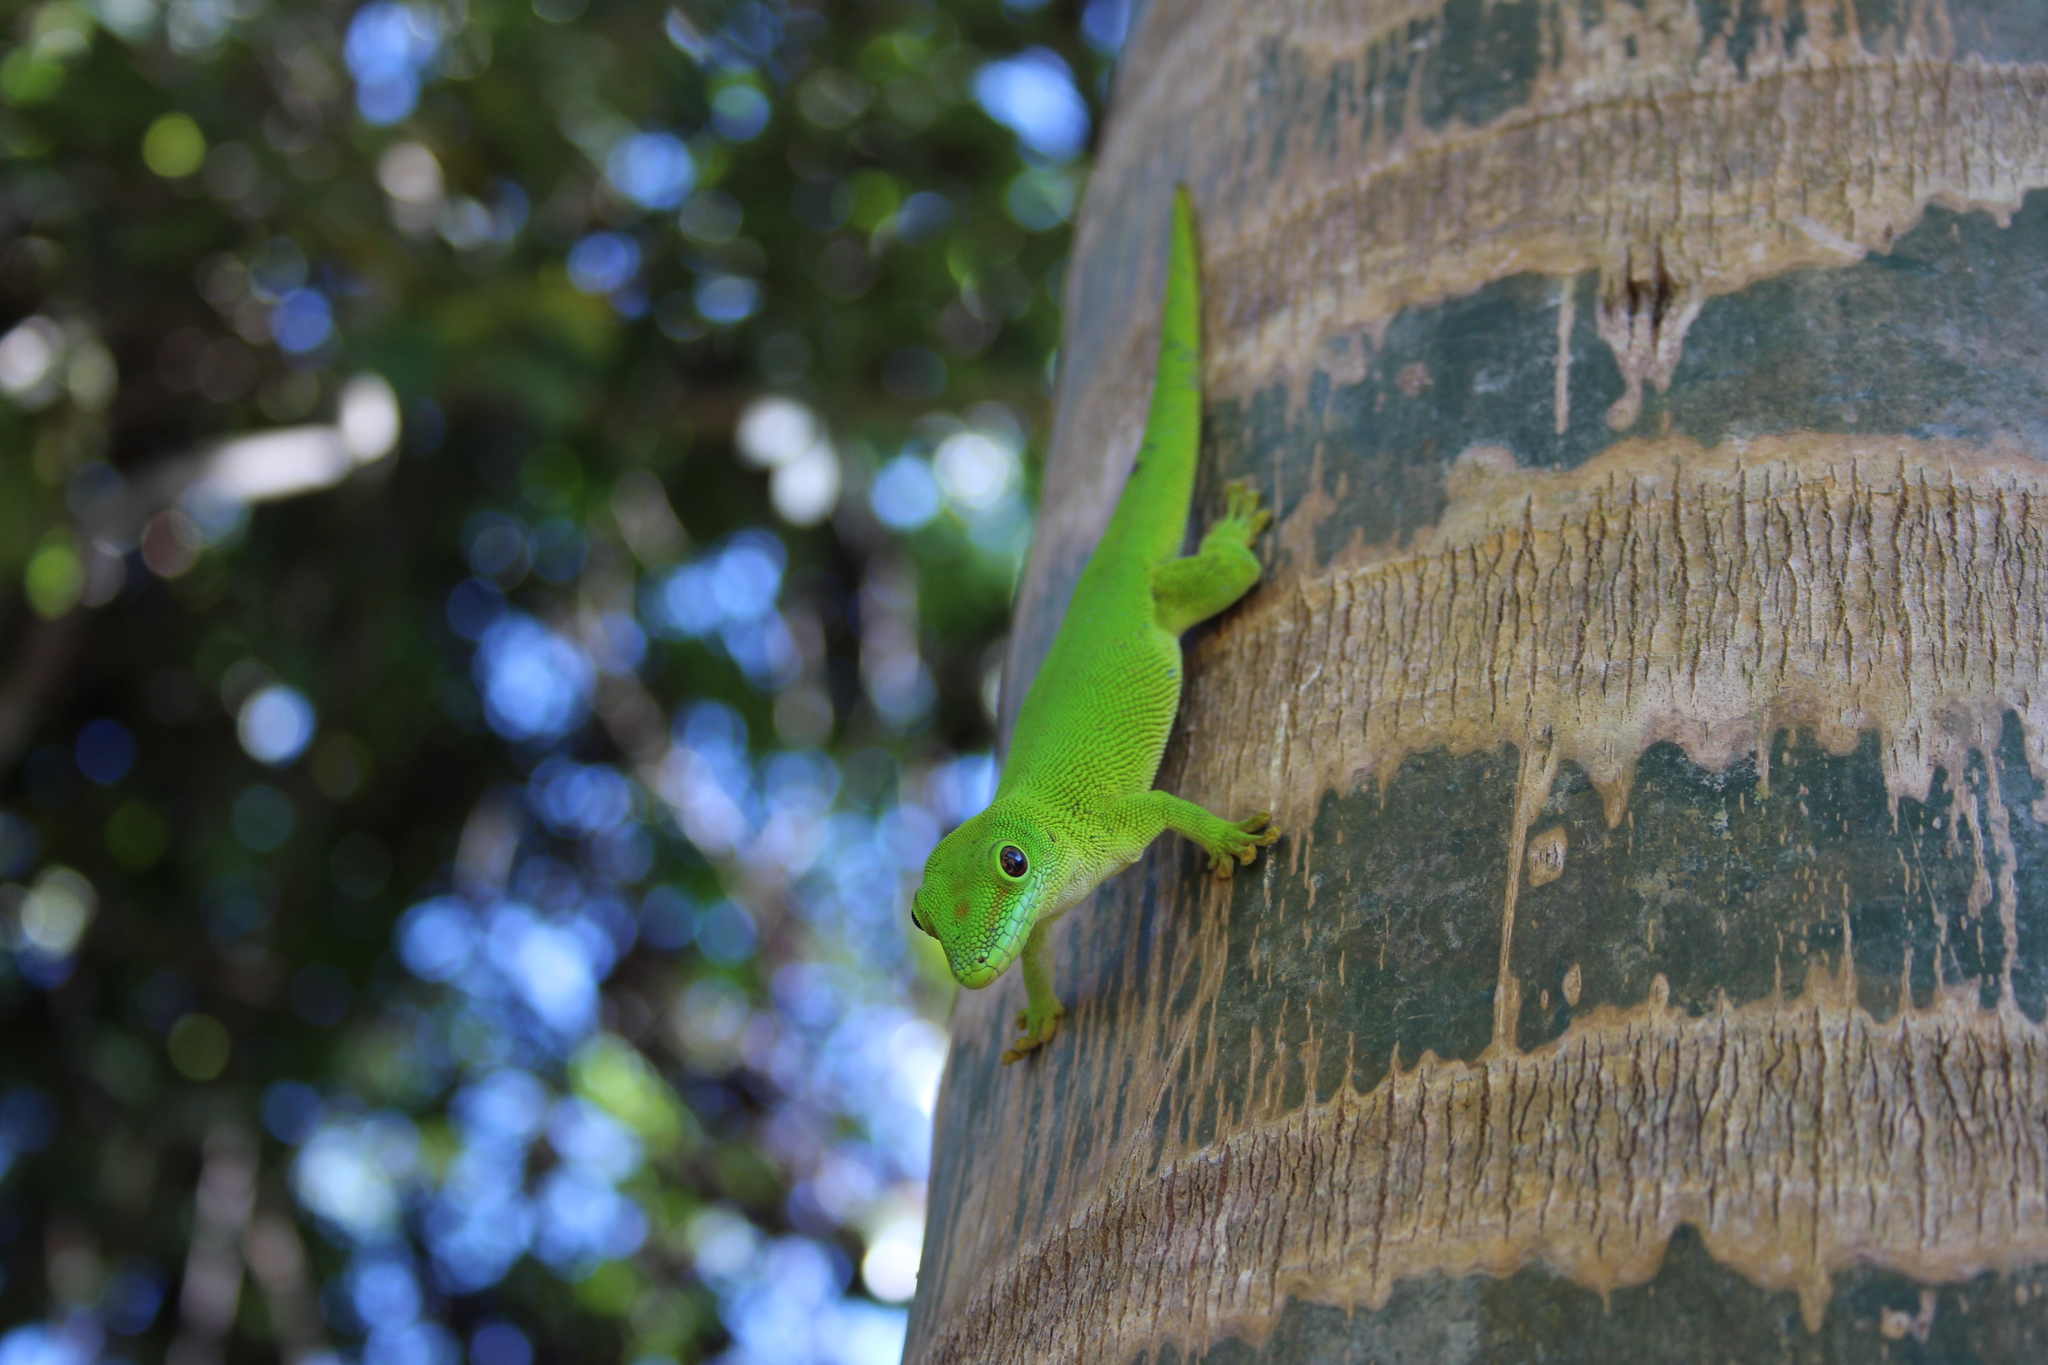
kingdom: Animalia
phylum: Chordata
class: Squamata
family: Gekkonidae
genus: Phelsuma
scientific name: Phelsuma grandis
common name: Madagascar giant day gecko
